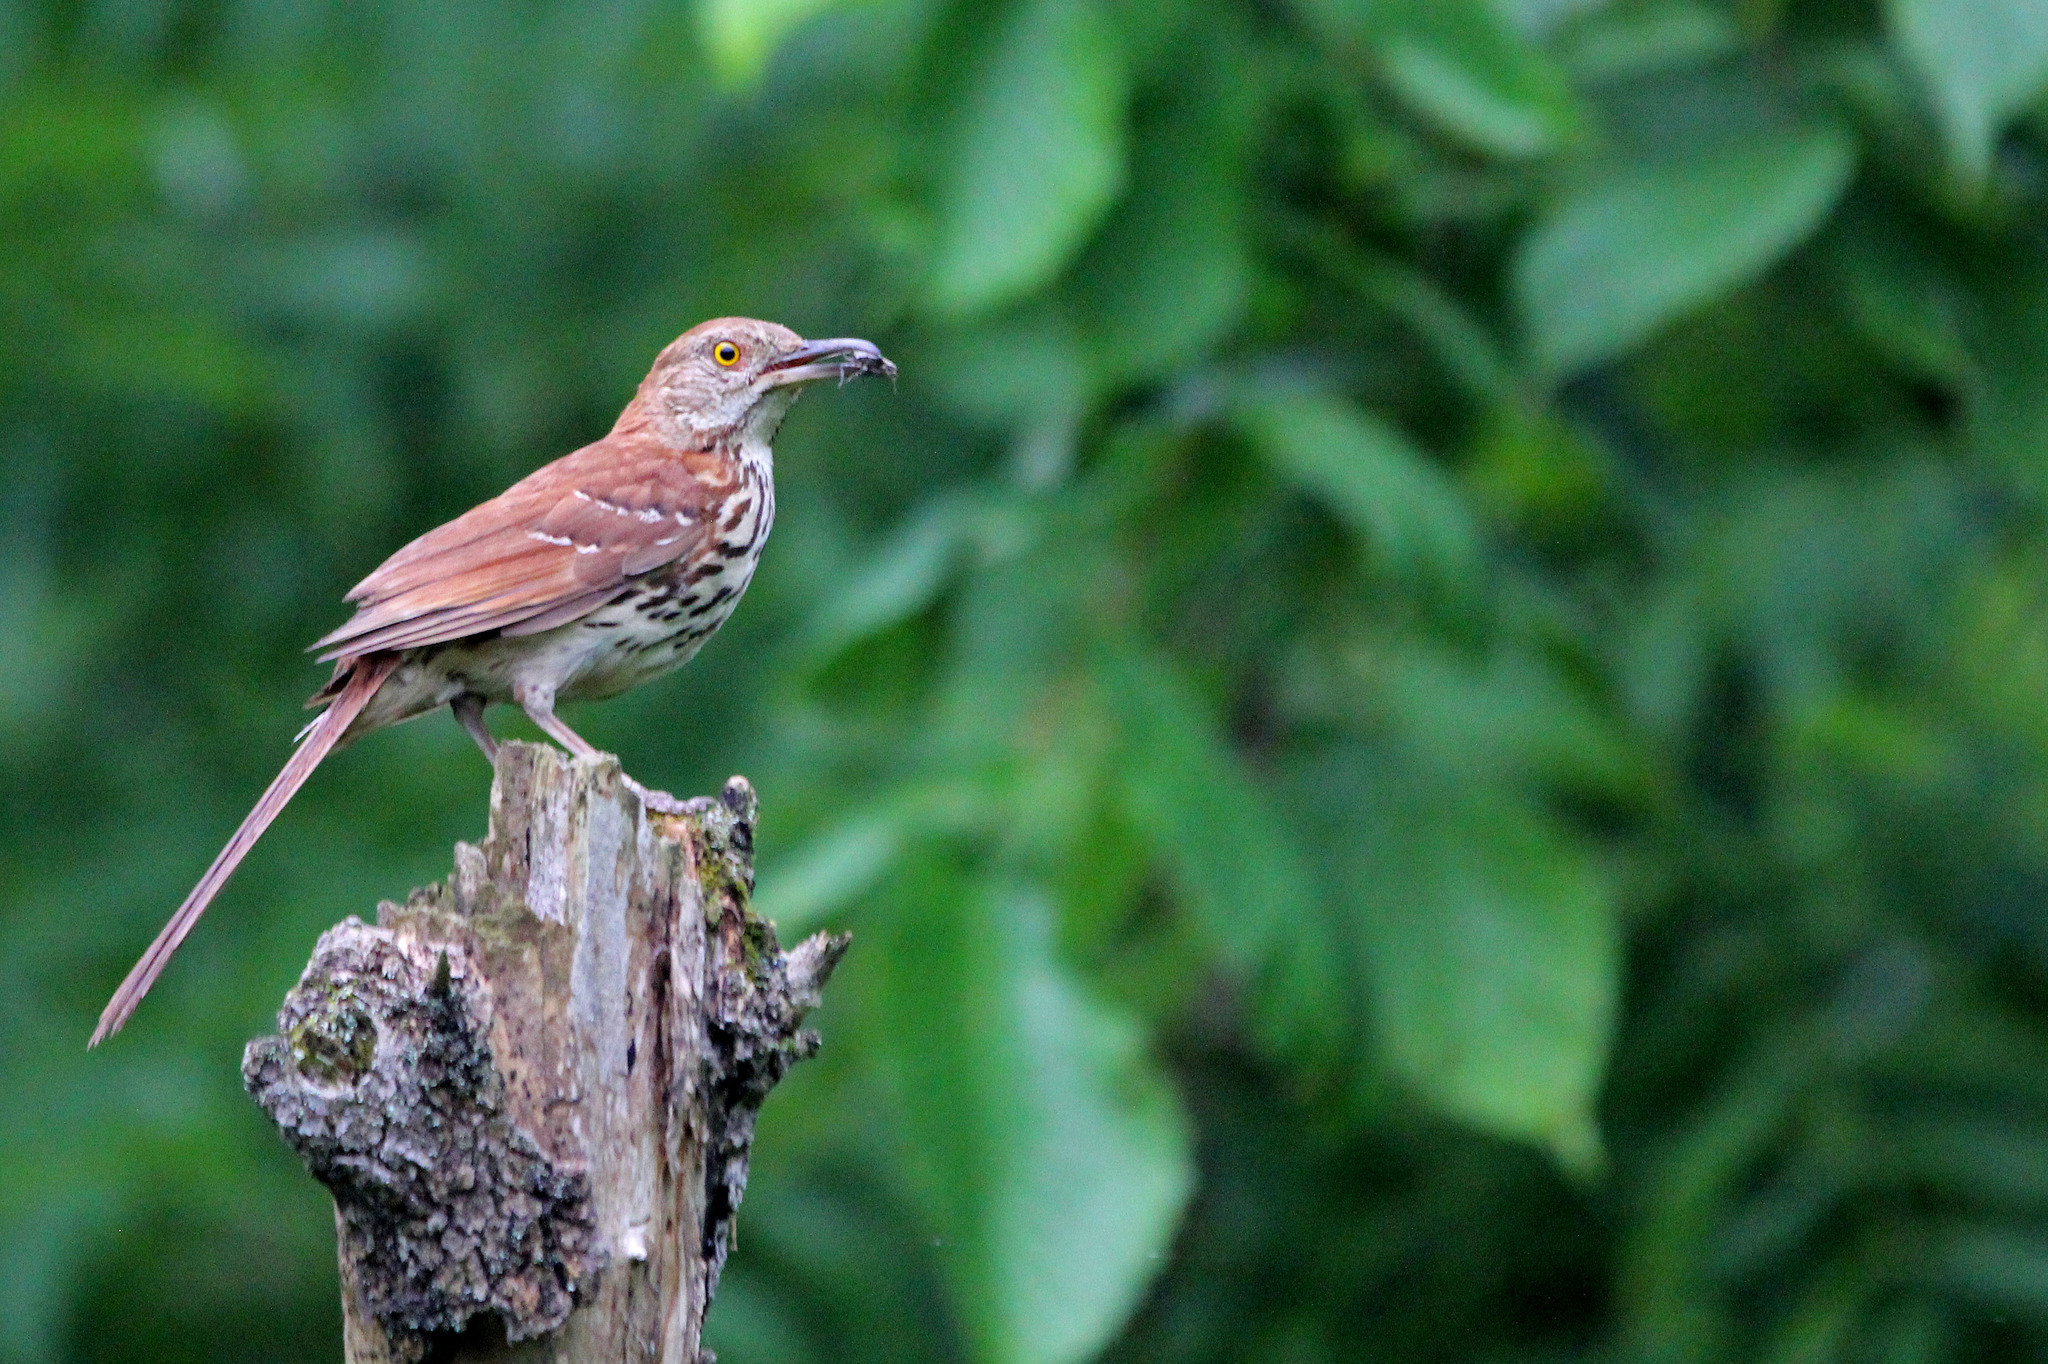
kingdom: Animalia
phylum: Chordata
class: Aves
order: Passeriformes
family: Mimidae
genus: Toxostoma
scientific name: Toxostoma rufum
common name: Brown thrasher
